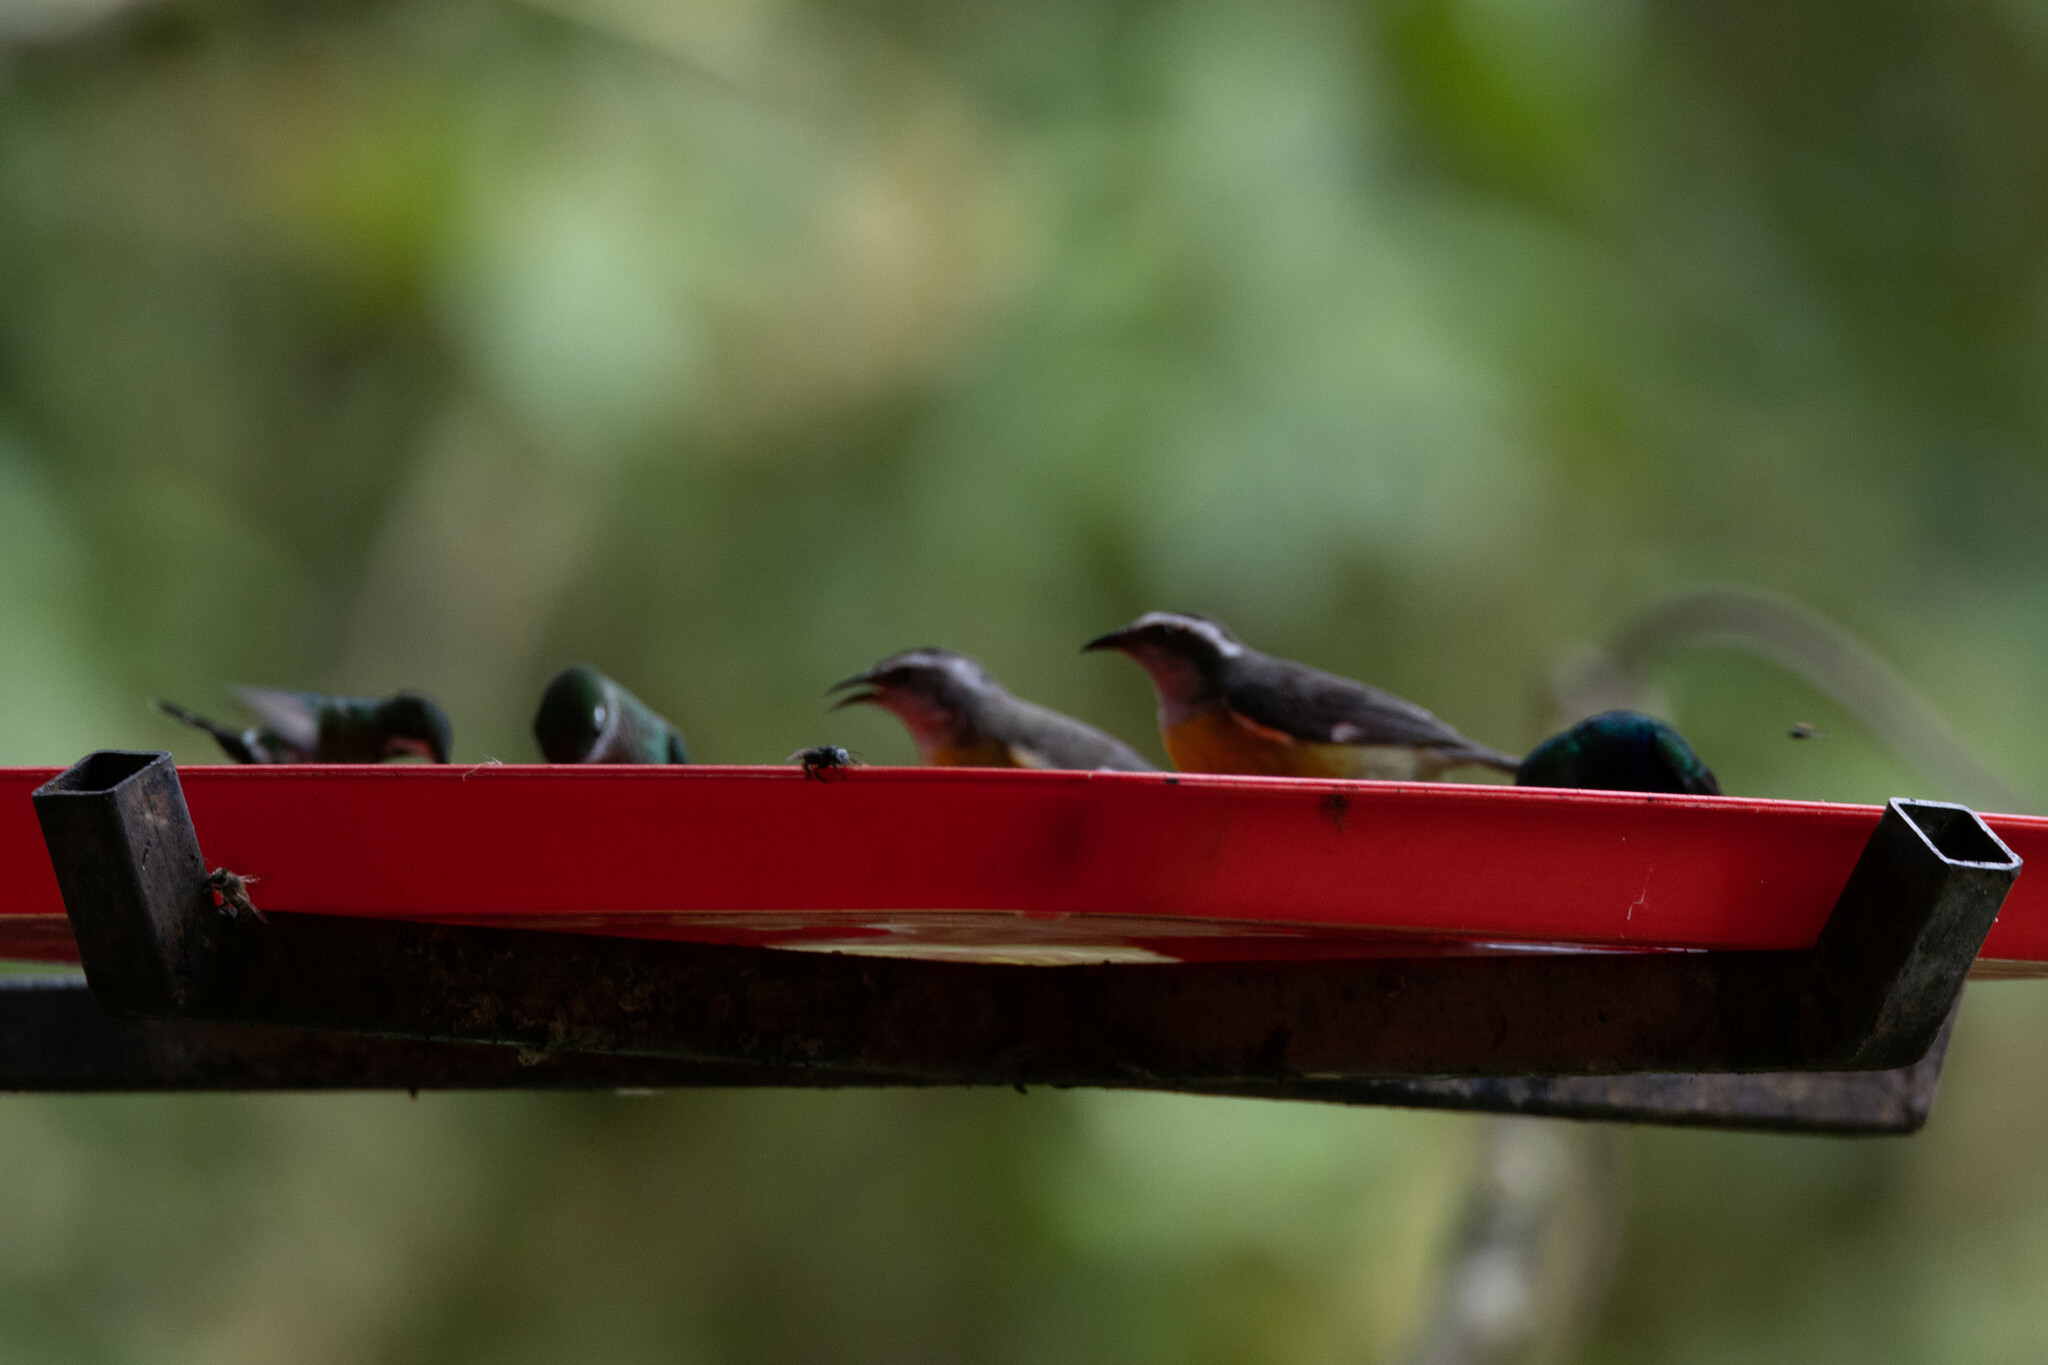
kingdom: Animalia
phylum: Chordata
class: Aves
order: Passeriformes
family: Thraupidae
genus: Coereba
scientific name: Coereba flaveola
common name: Bananaquit
